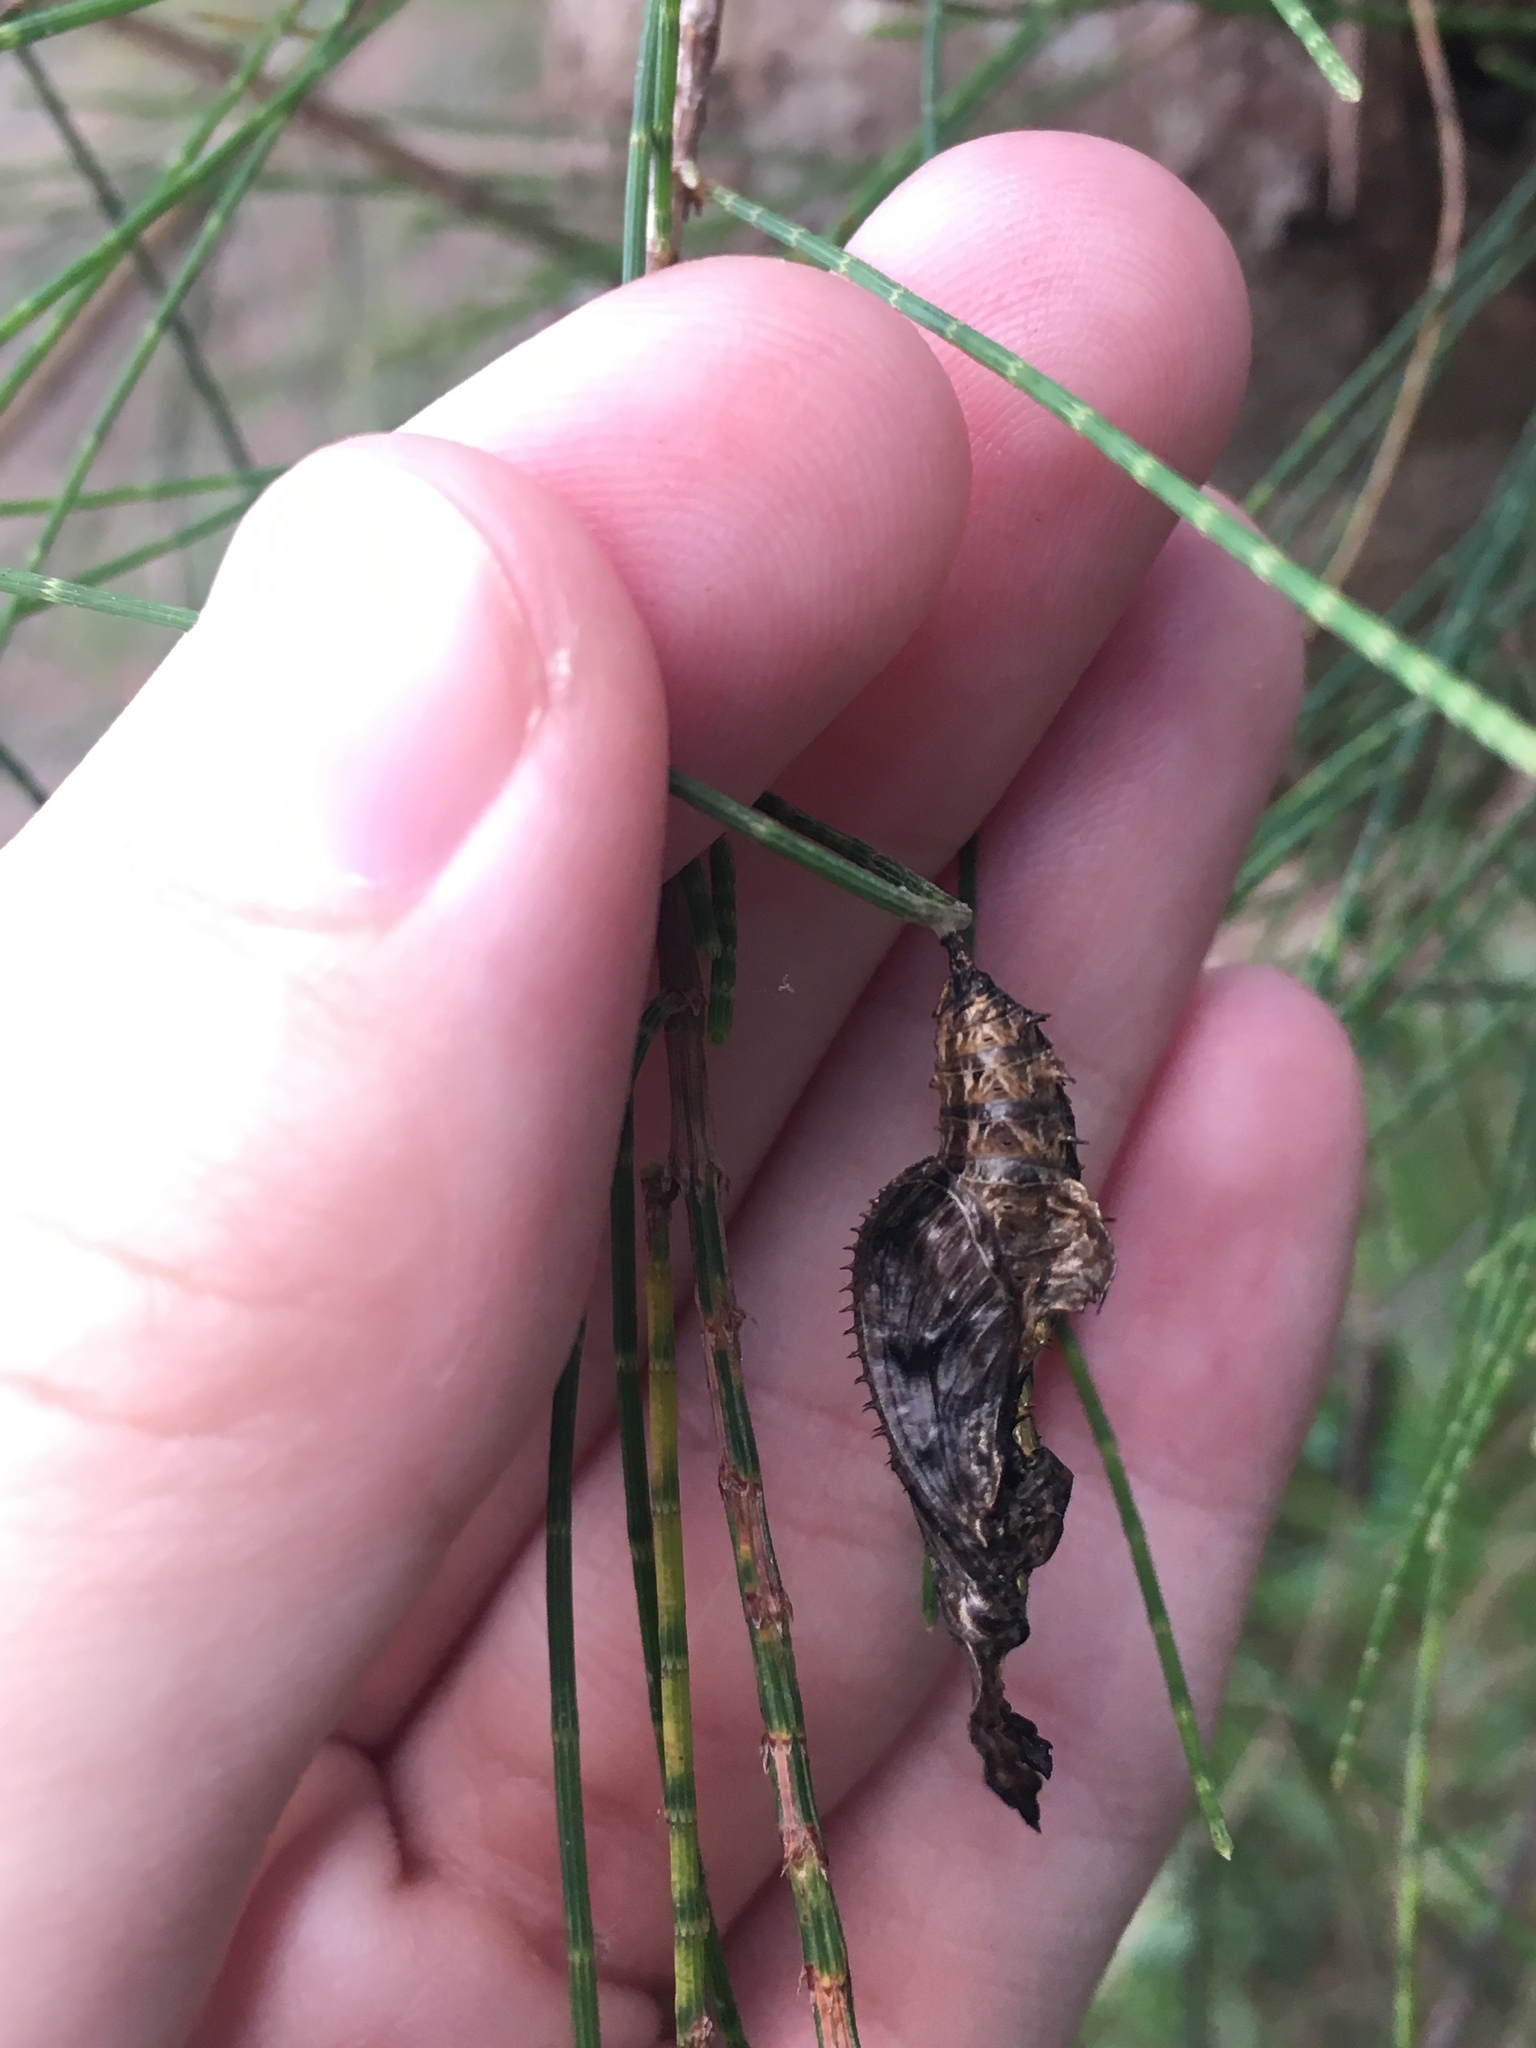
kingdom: Animalia
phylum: Arthropoda
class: Insecta
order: Lepidoptera
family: Nymphalidae
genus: Heliconius
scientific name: Heliconius charithonia
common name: Zebra long wing
